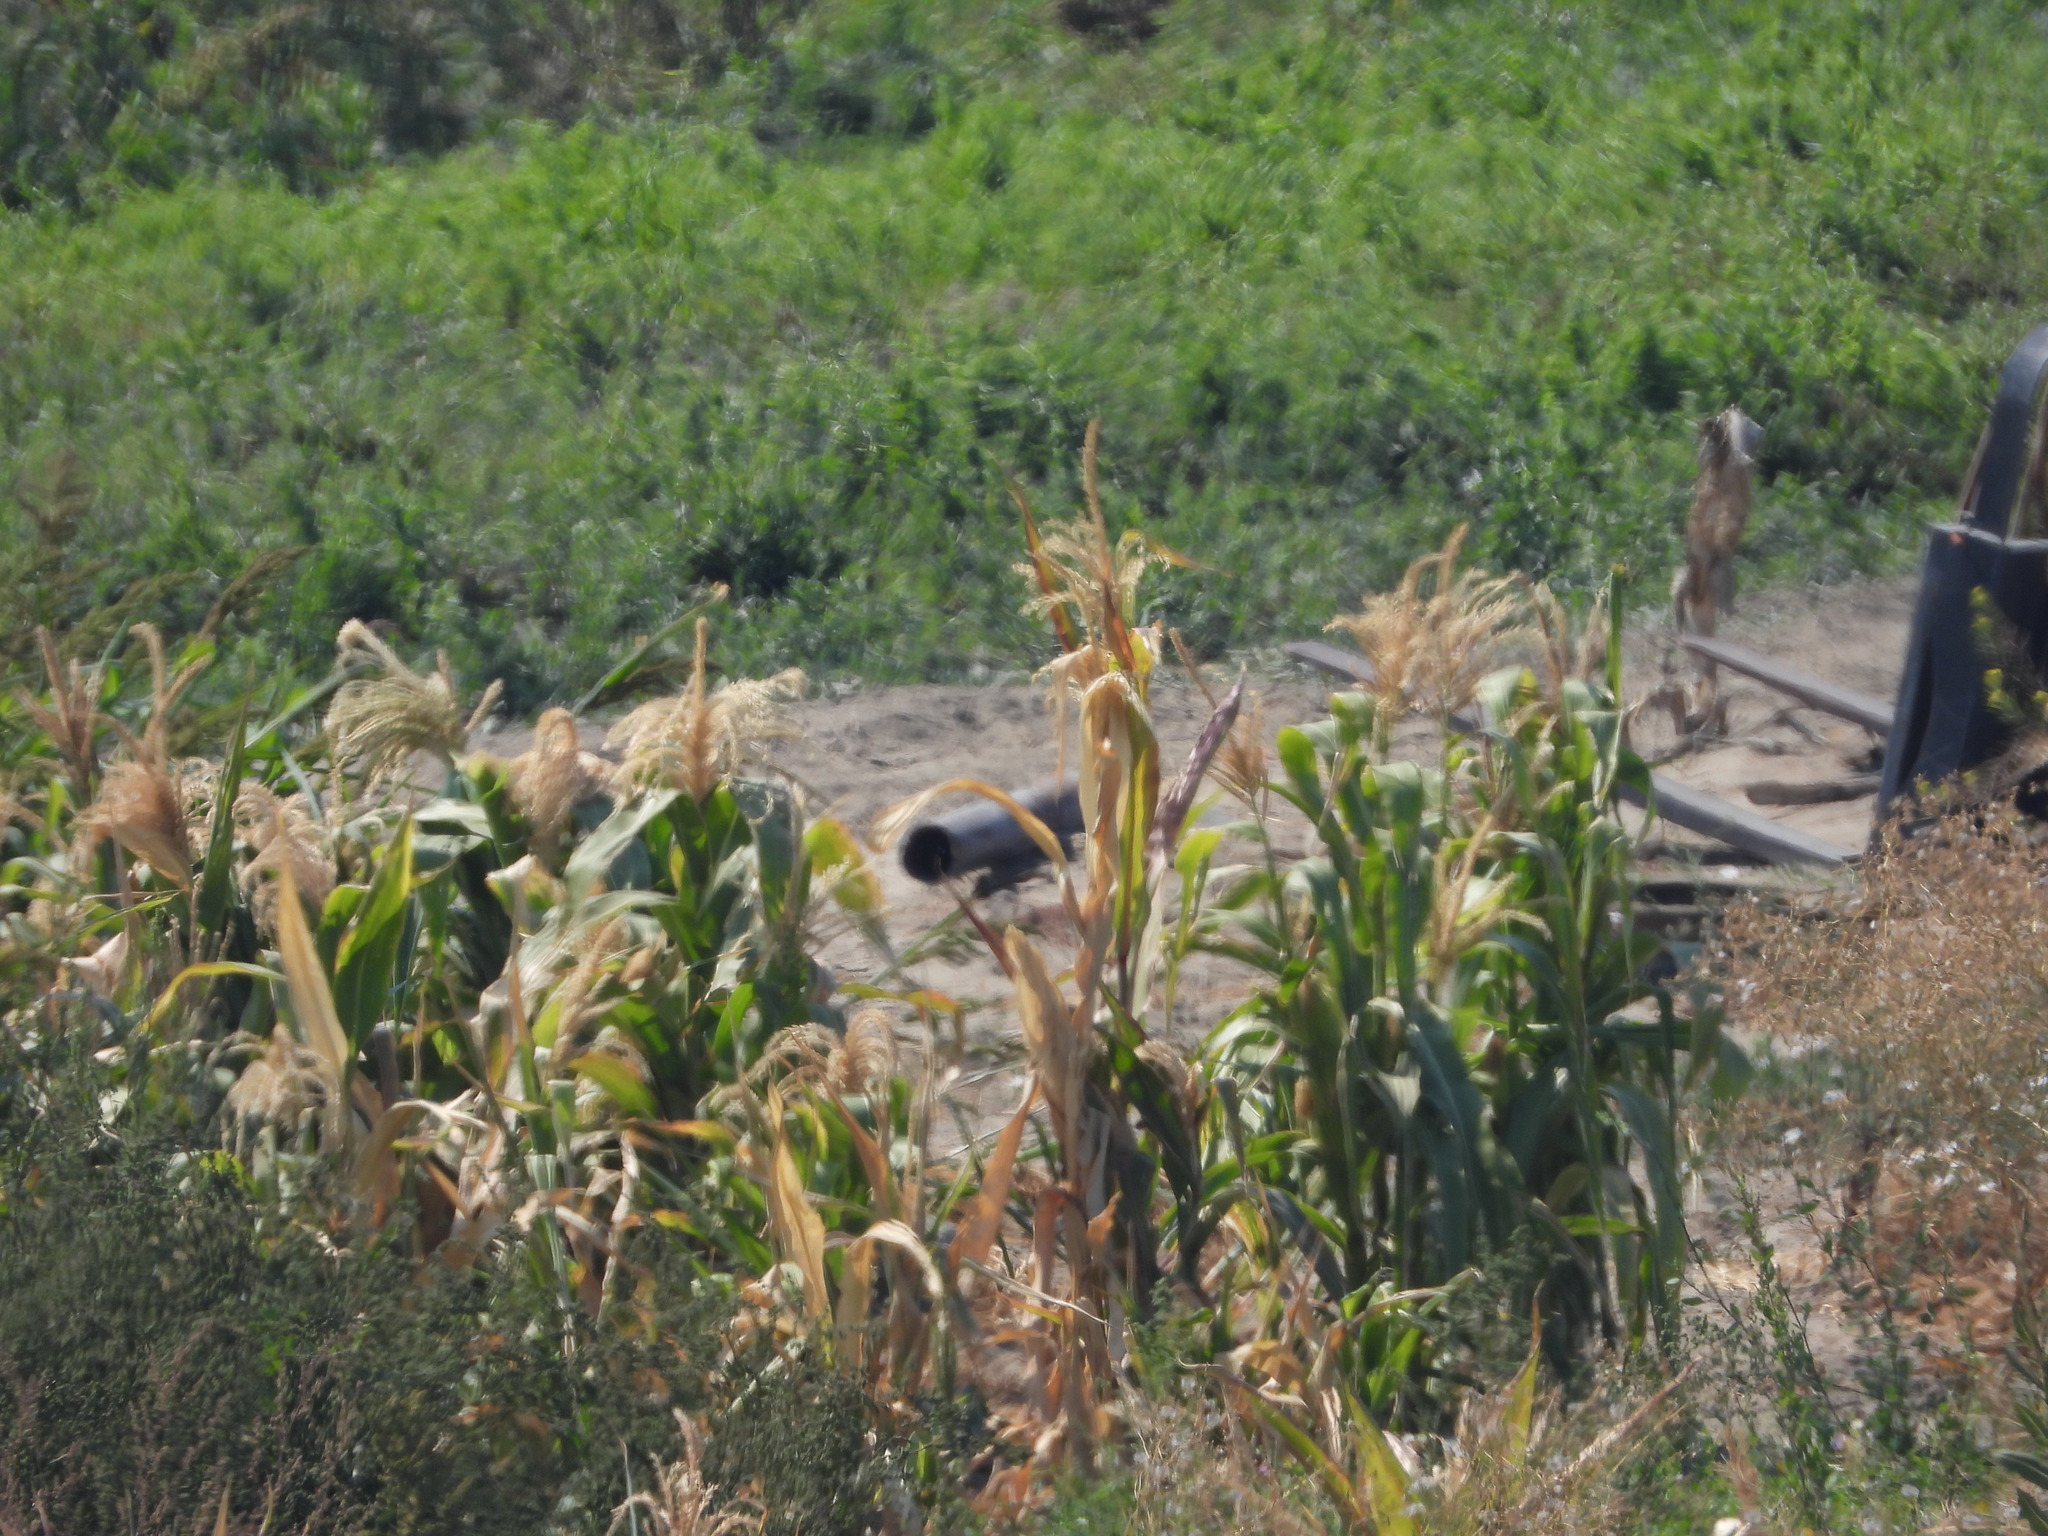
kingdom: Plantae
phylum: Tracheophyta
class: Liliopsida
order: Poales
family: Poaceae
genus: Zea
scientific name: Zea mays
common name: Maize
